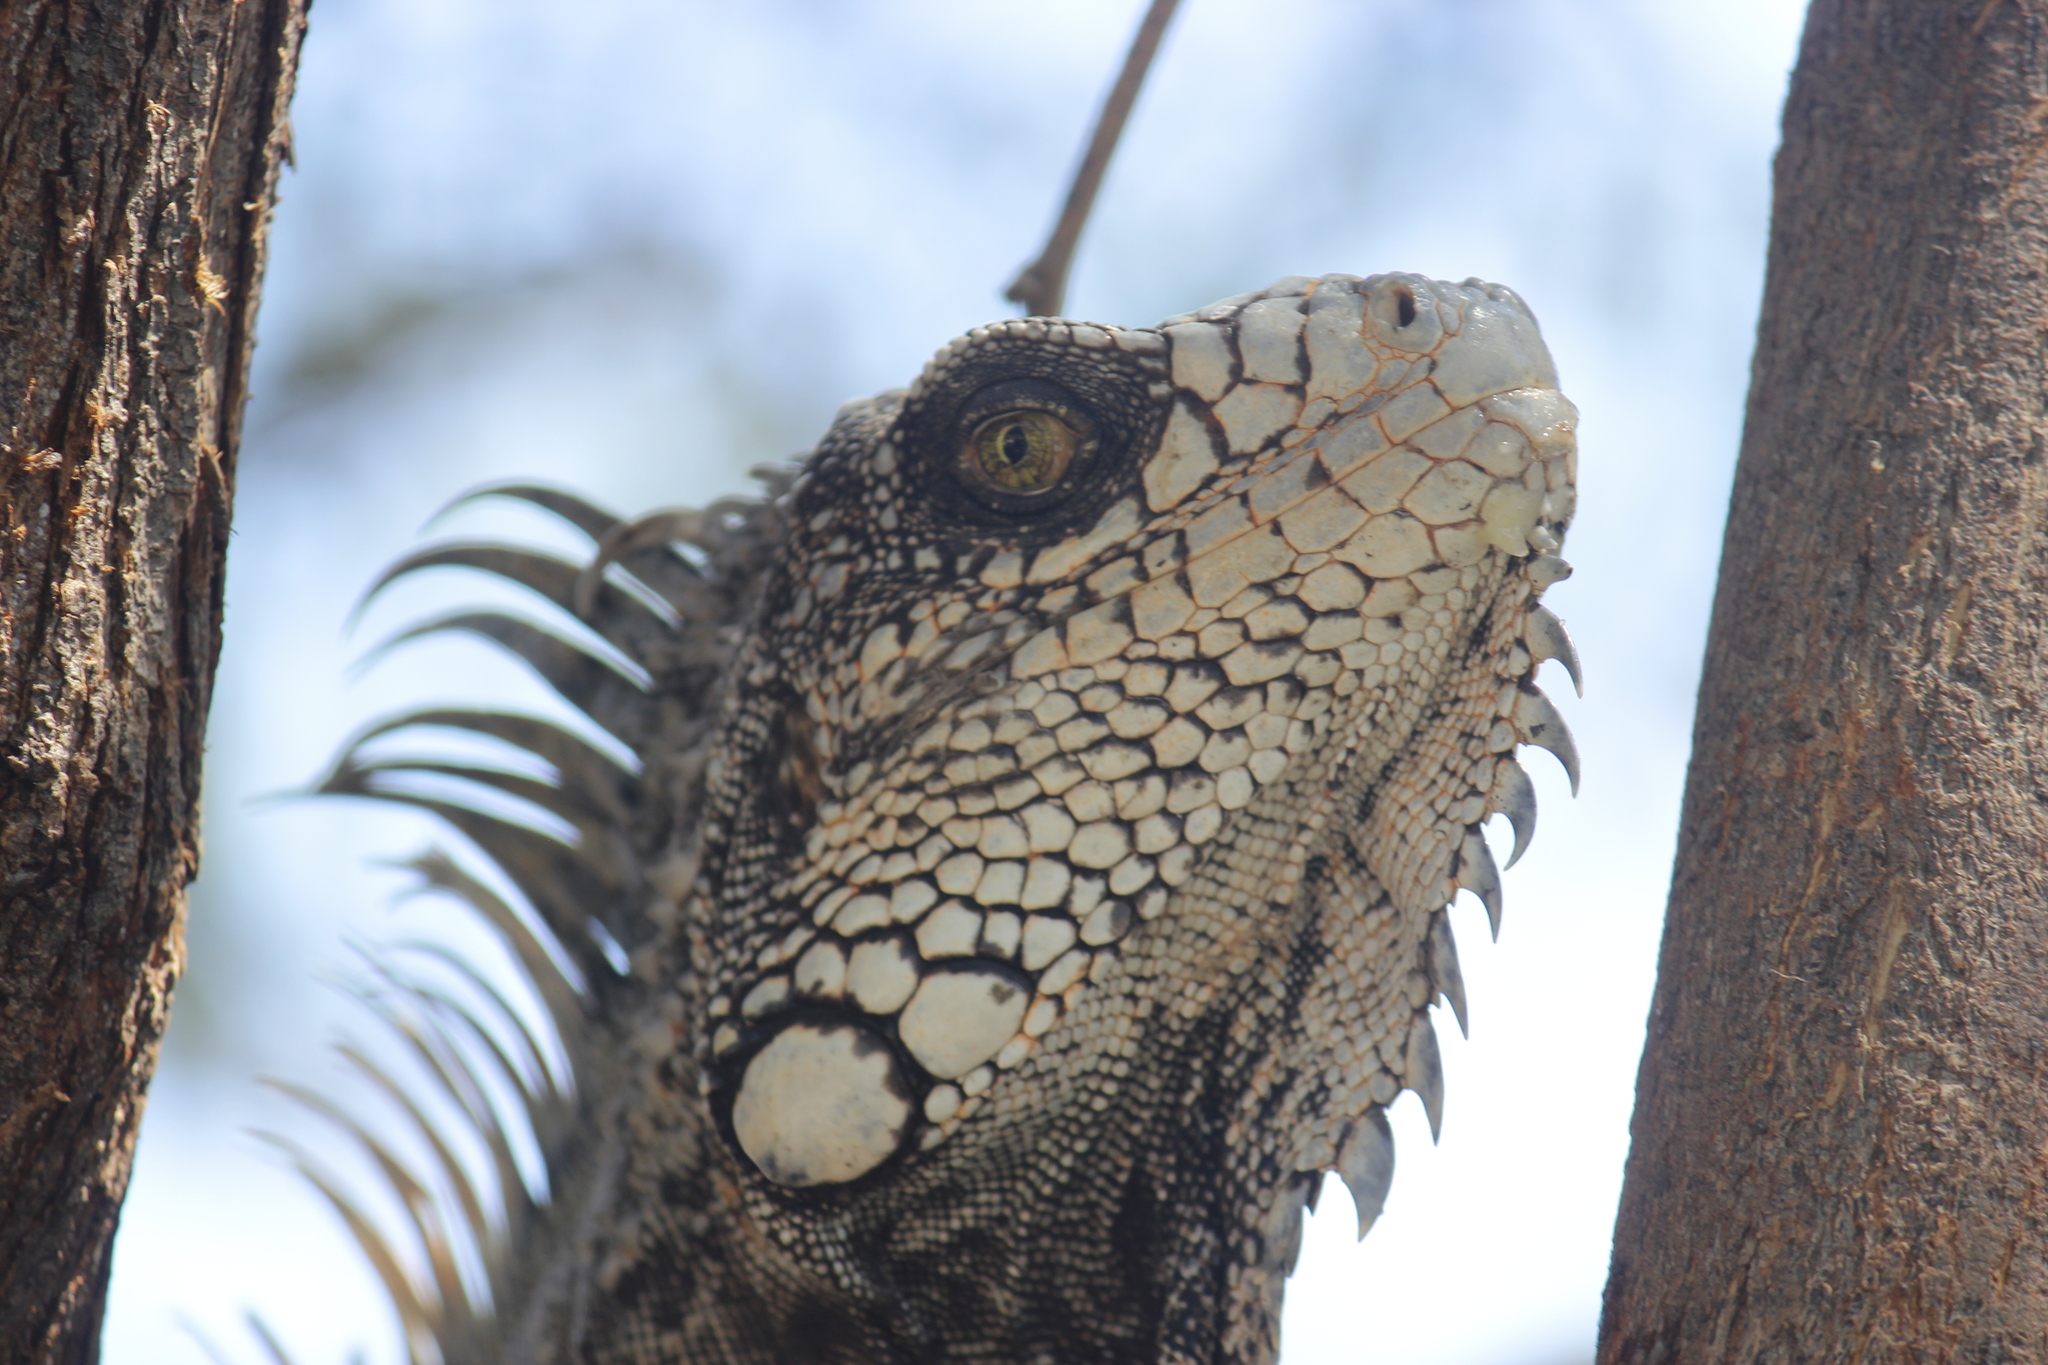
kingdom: Animalia
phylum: Chordata
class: Squamata
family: Iguanidae
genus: Iguana
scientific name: Iguana iguana
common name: Green iguana
